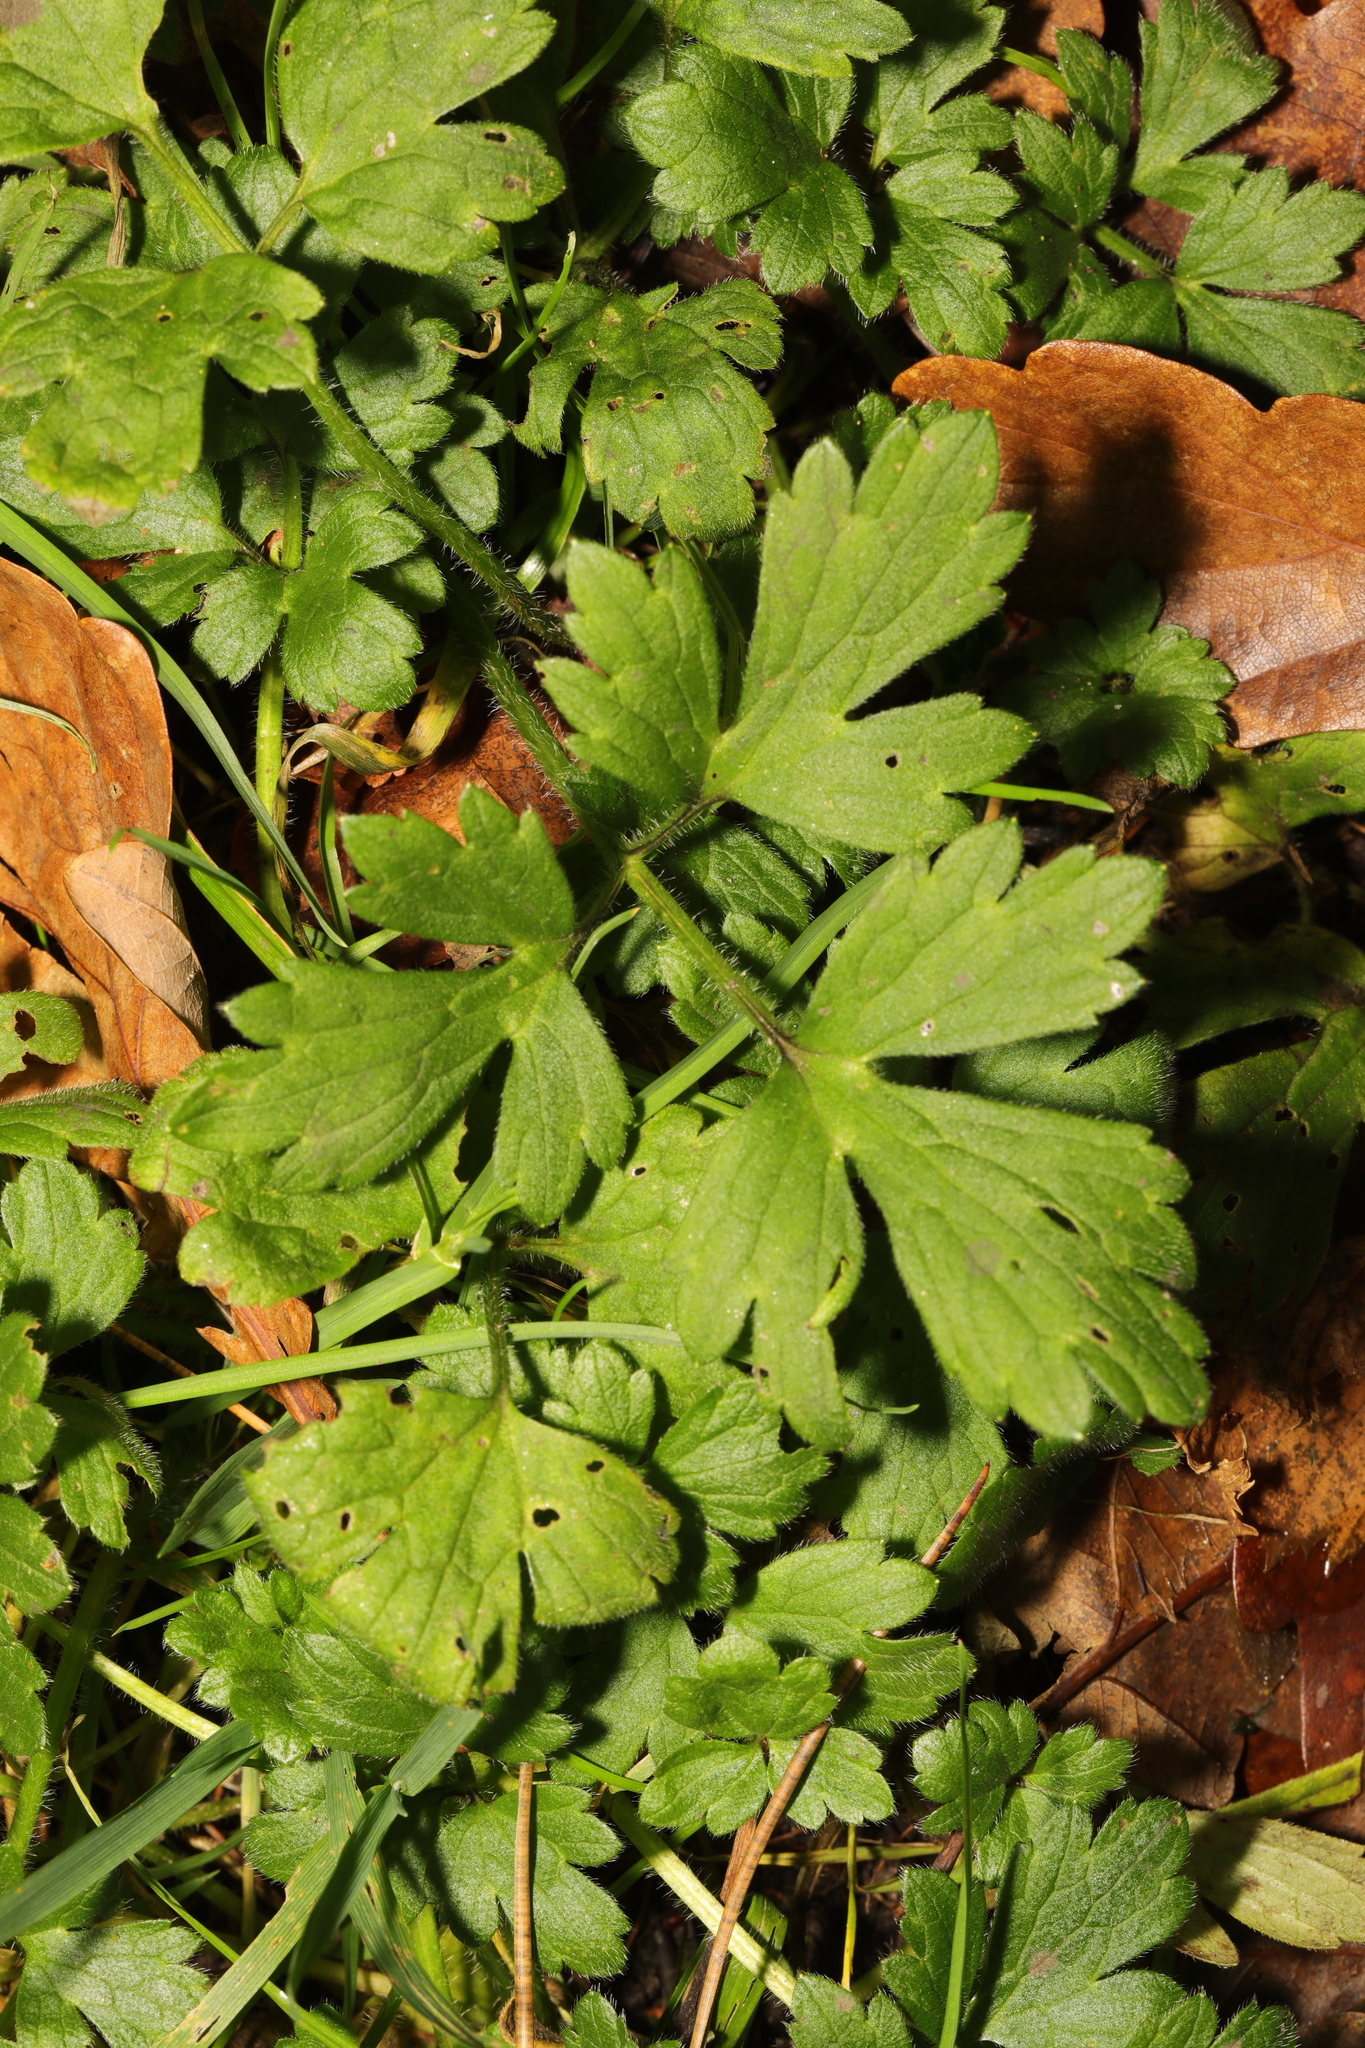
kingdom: Plantae
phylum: Tracheophyta
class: Magnoliopsida
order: Ranunculales
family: Ranunculaceae
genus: Ranunculus
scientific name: Ranunculus repens
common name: Creeping buttercup
